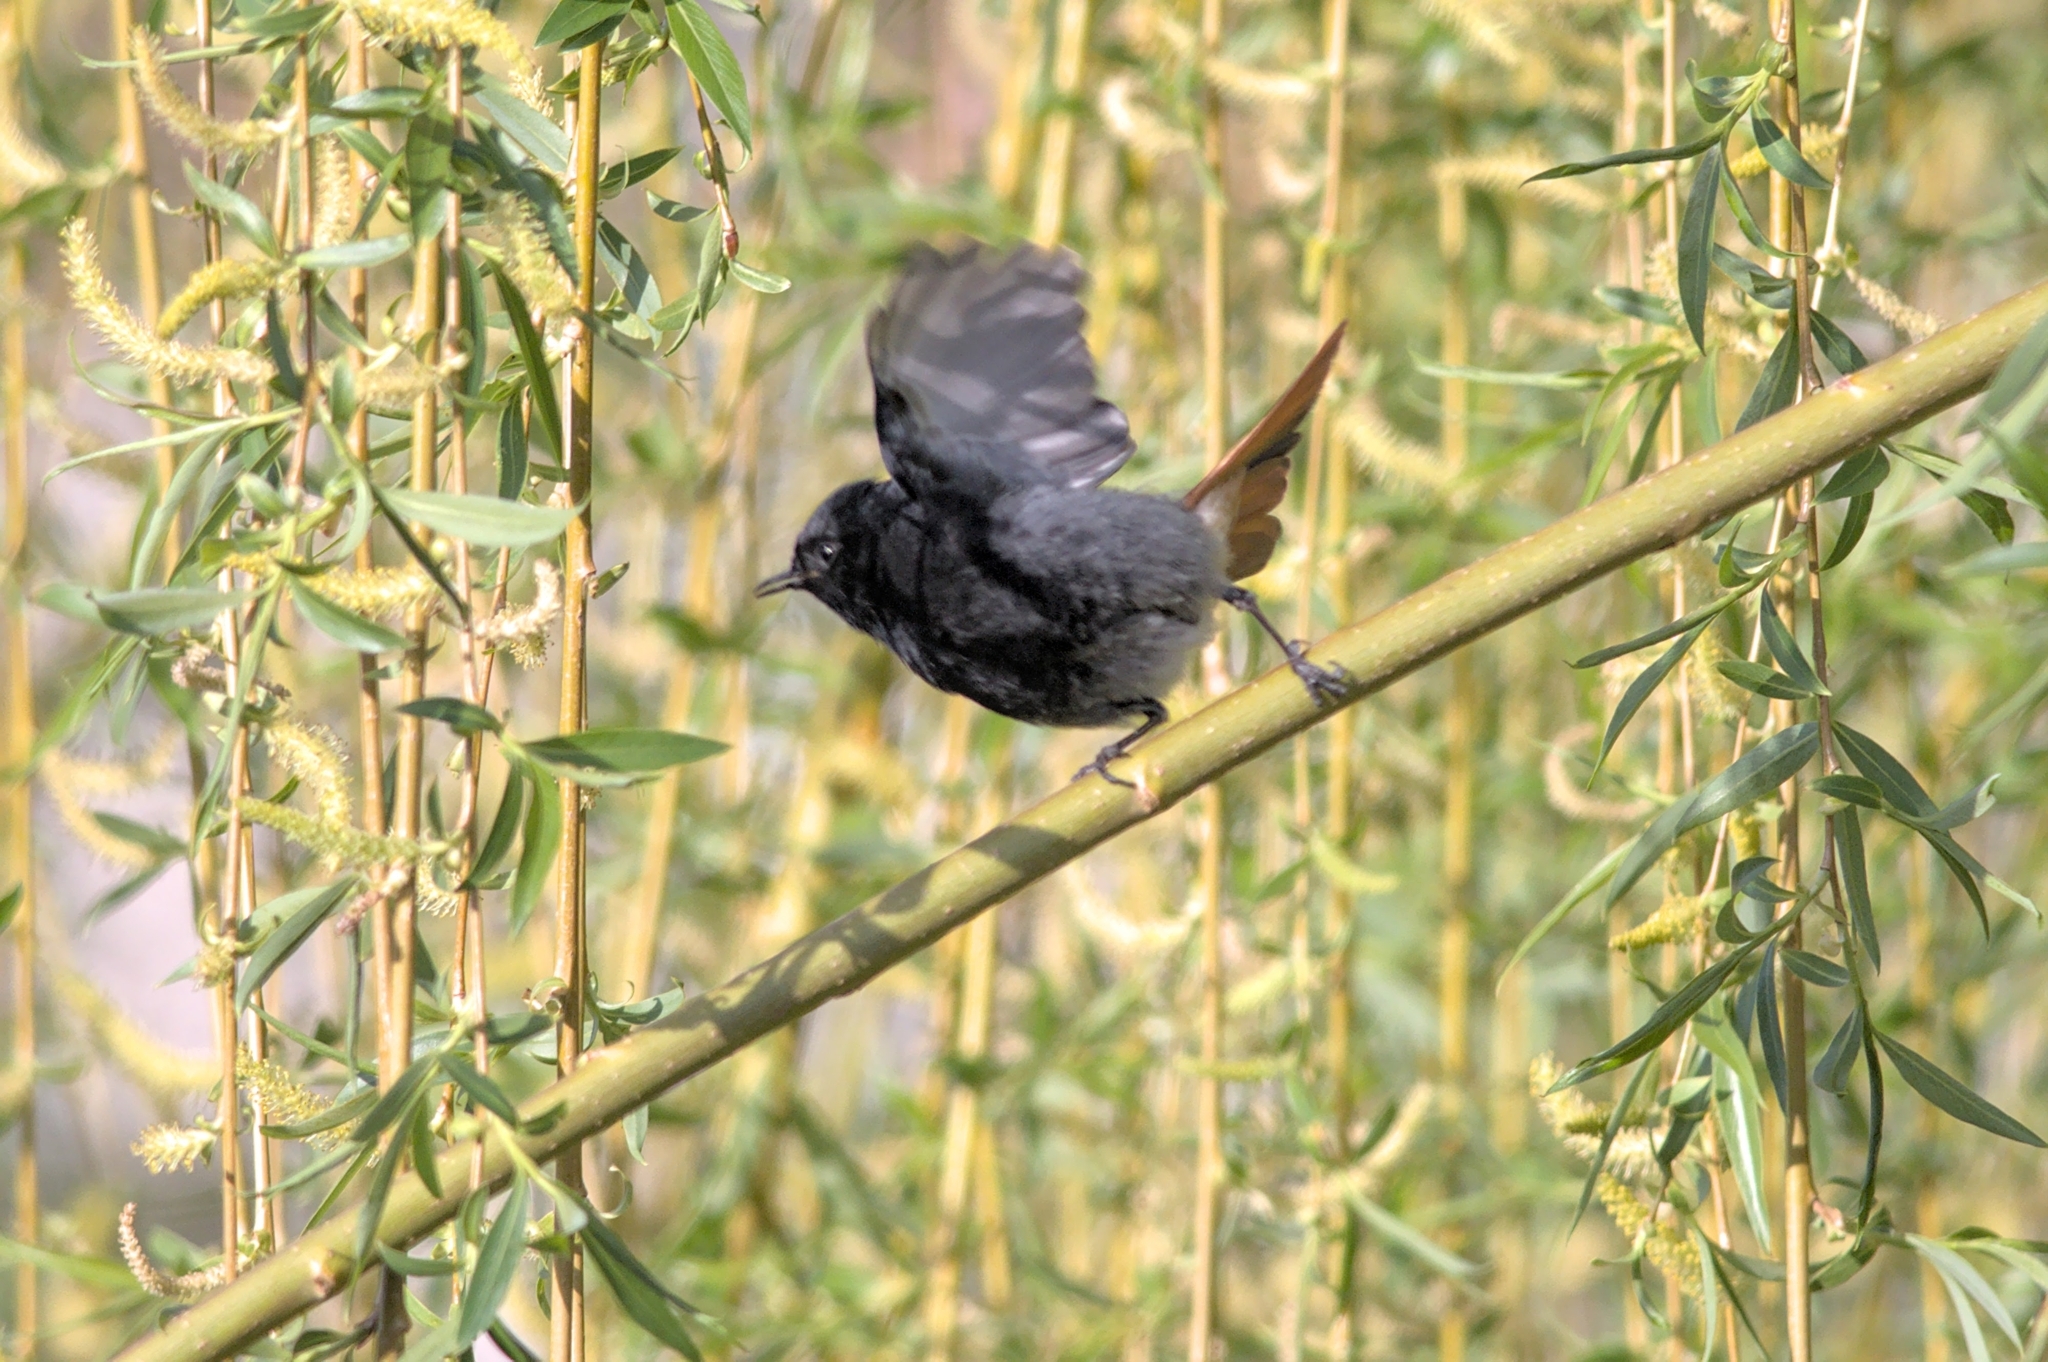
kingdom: Animalia
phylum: Chordata
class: Aves
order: Passeriformes
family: Muscicapidae
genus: Phoenicurus
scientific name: Phoenicurus ochruros
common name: Black redstart
